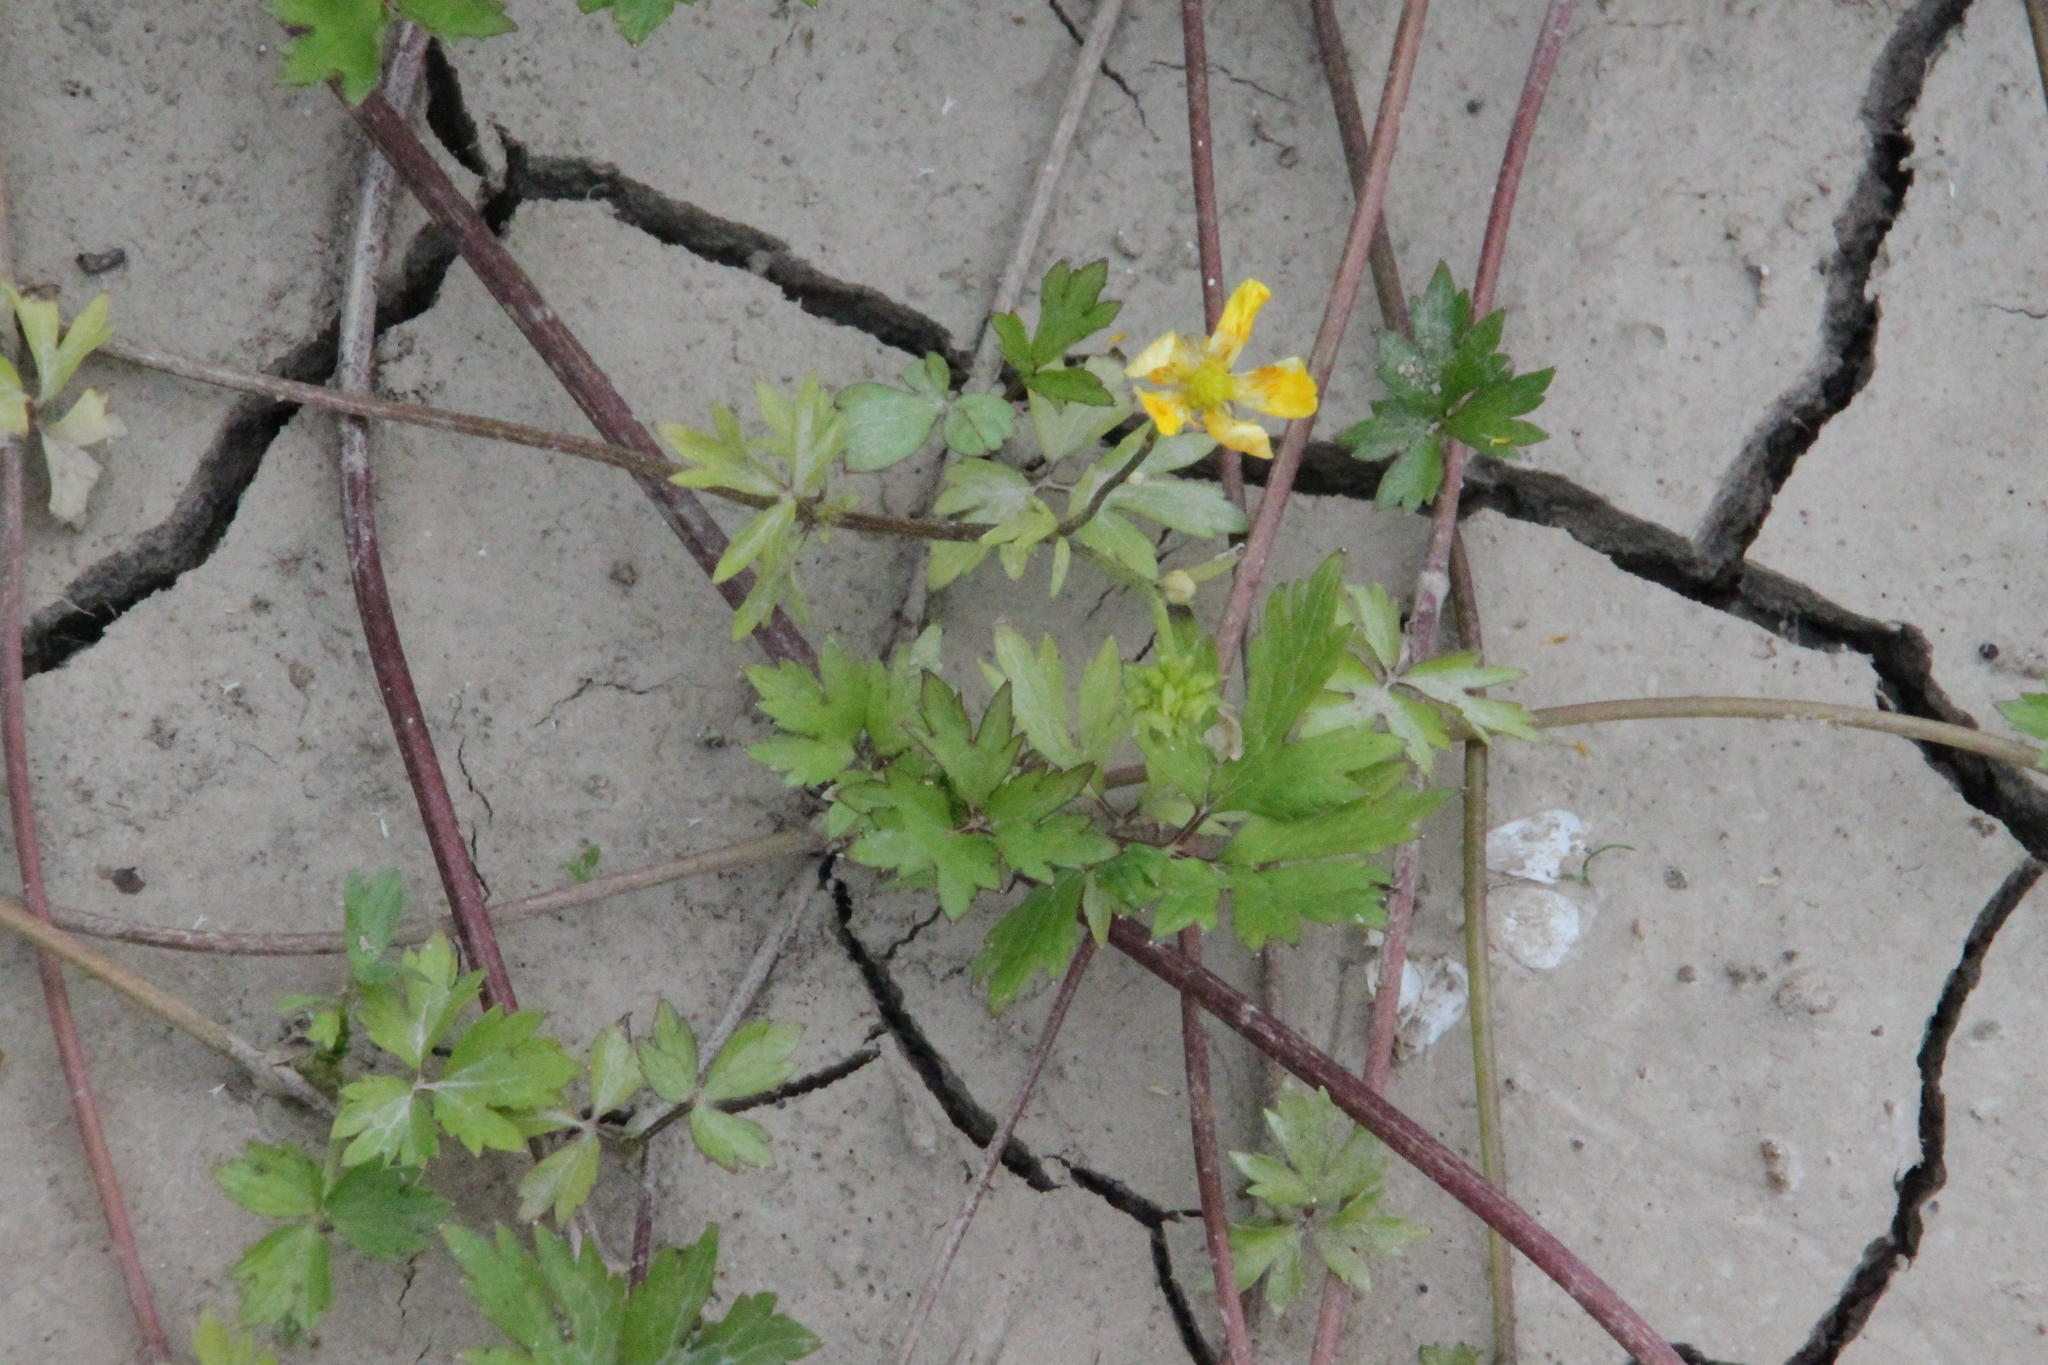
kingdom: Plantae
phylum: Tracheophyta
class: Magnoliopsida
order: Ranunculales
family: Ranunculaceae
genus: Ranunculus
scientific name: Ranunculus repens
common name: Creeping buttercup
